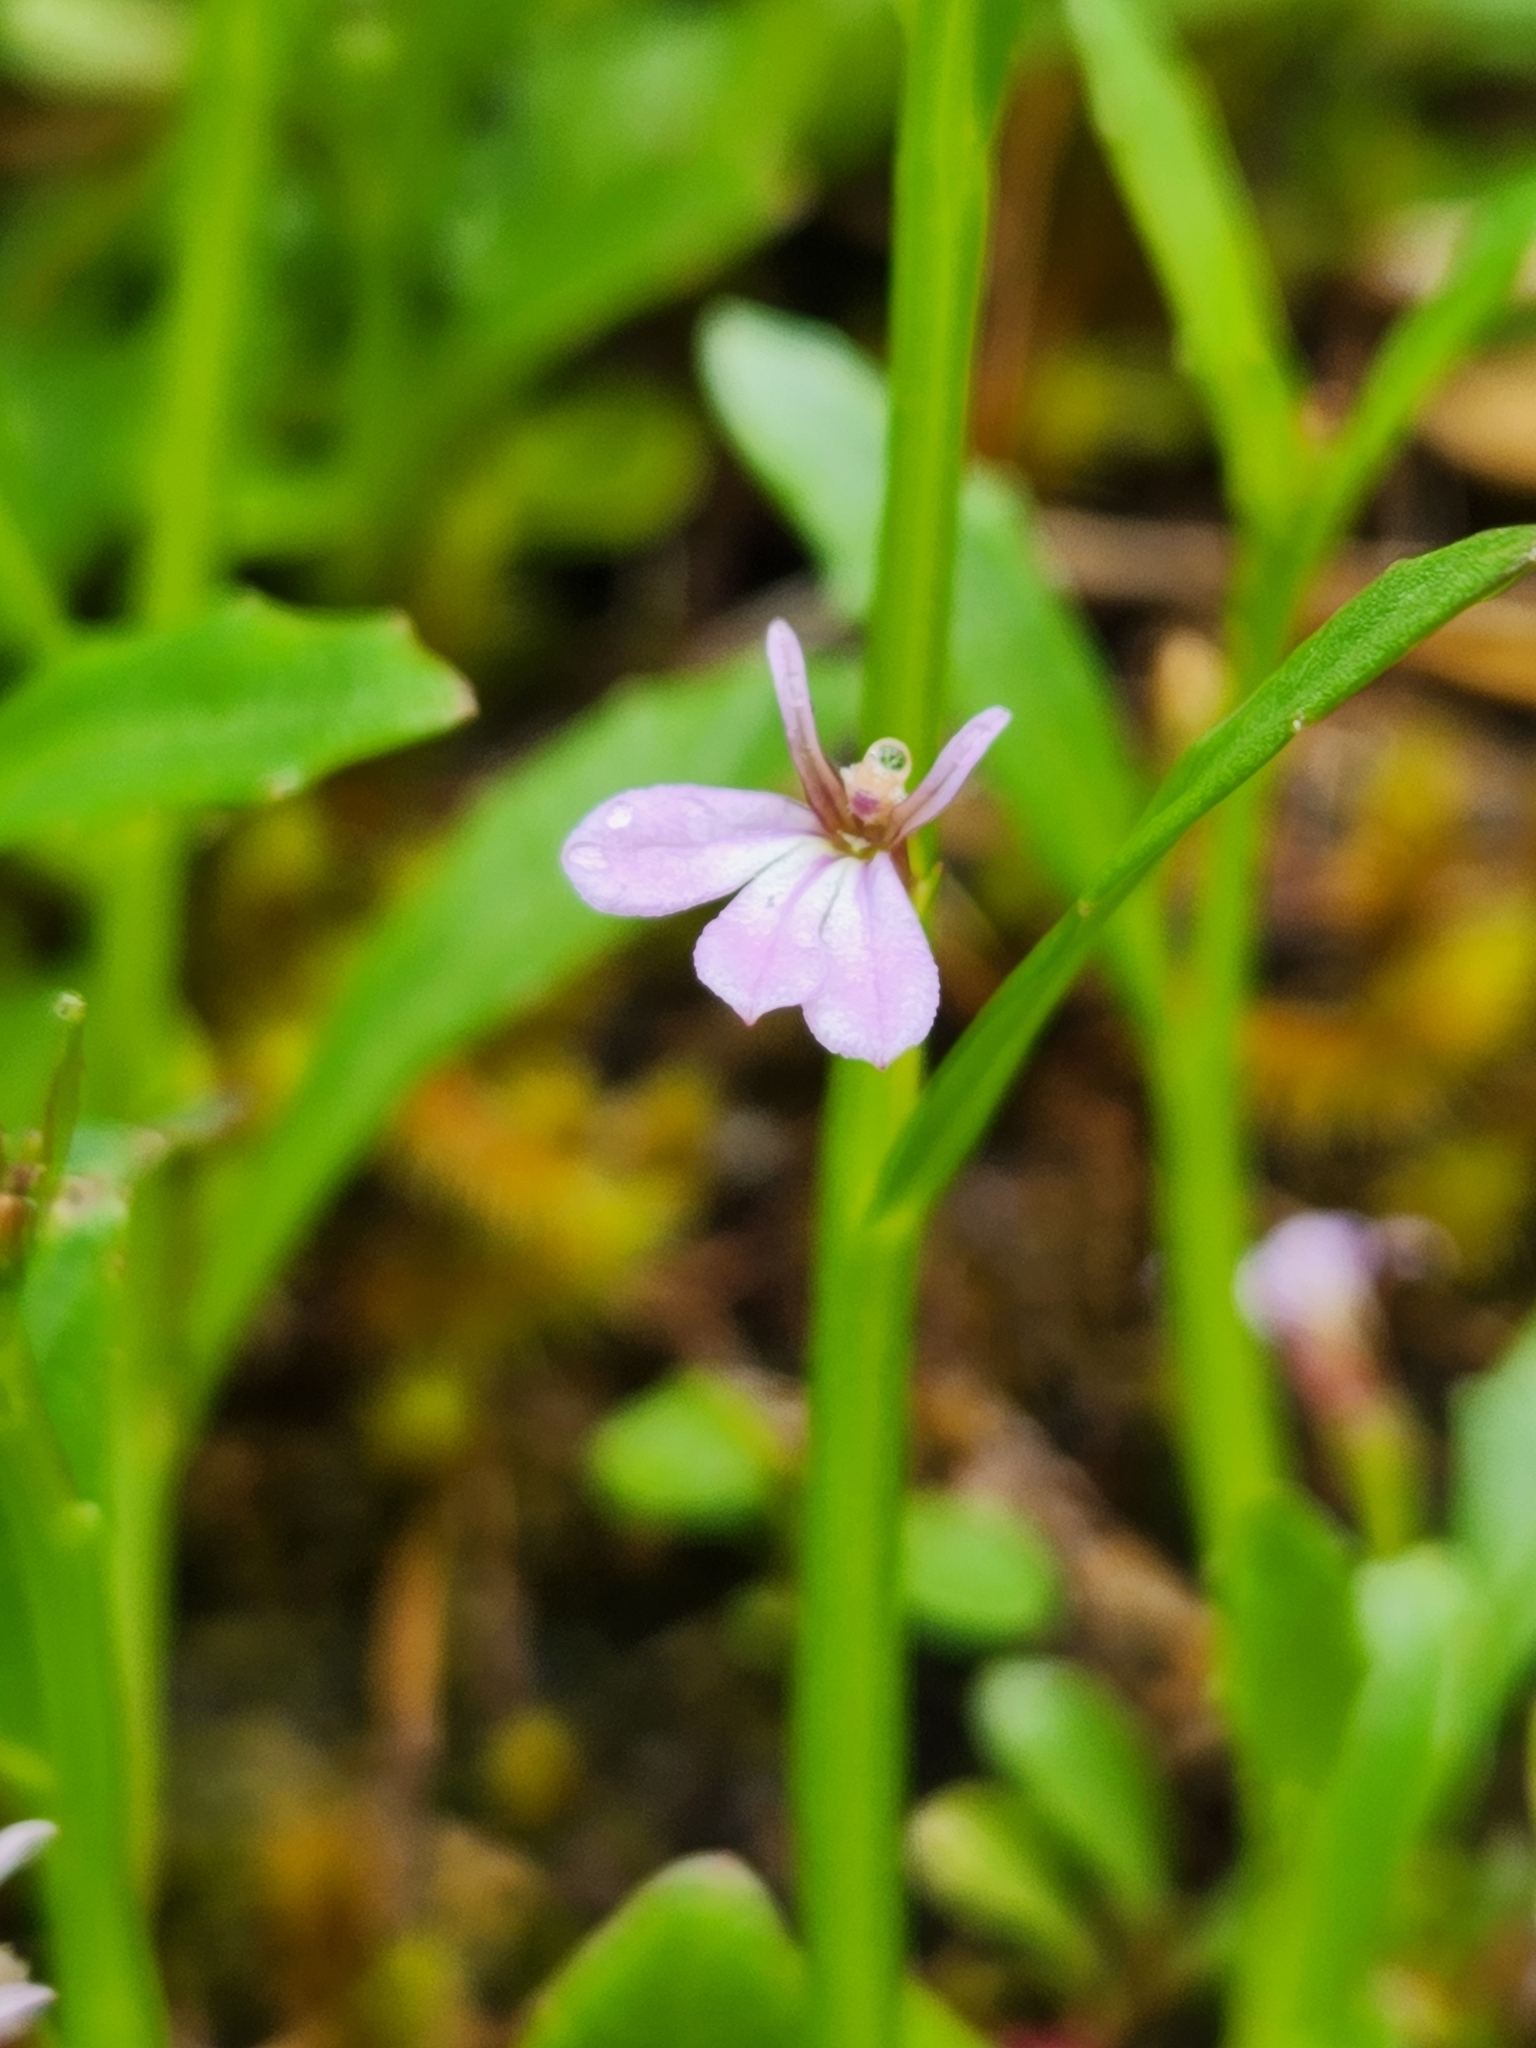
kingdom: Plantae
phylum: Tracheophyta
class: Magnoliopsida
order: Asterales
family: Campanulaceae
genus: Lobelia
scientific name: Lobelia anceps
